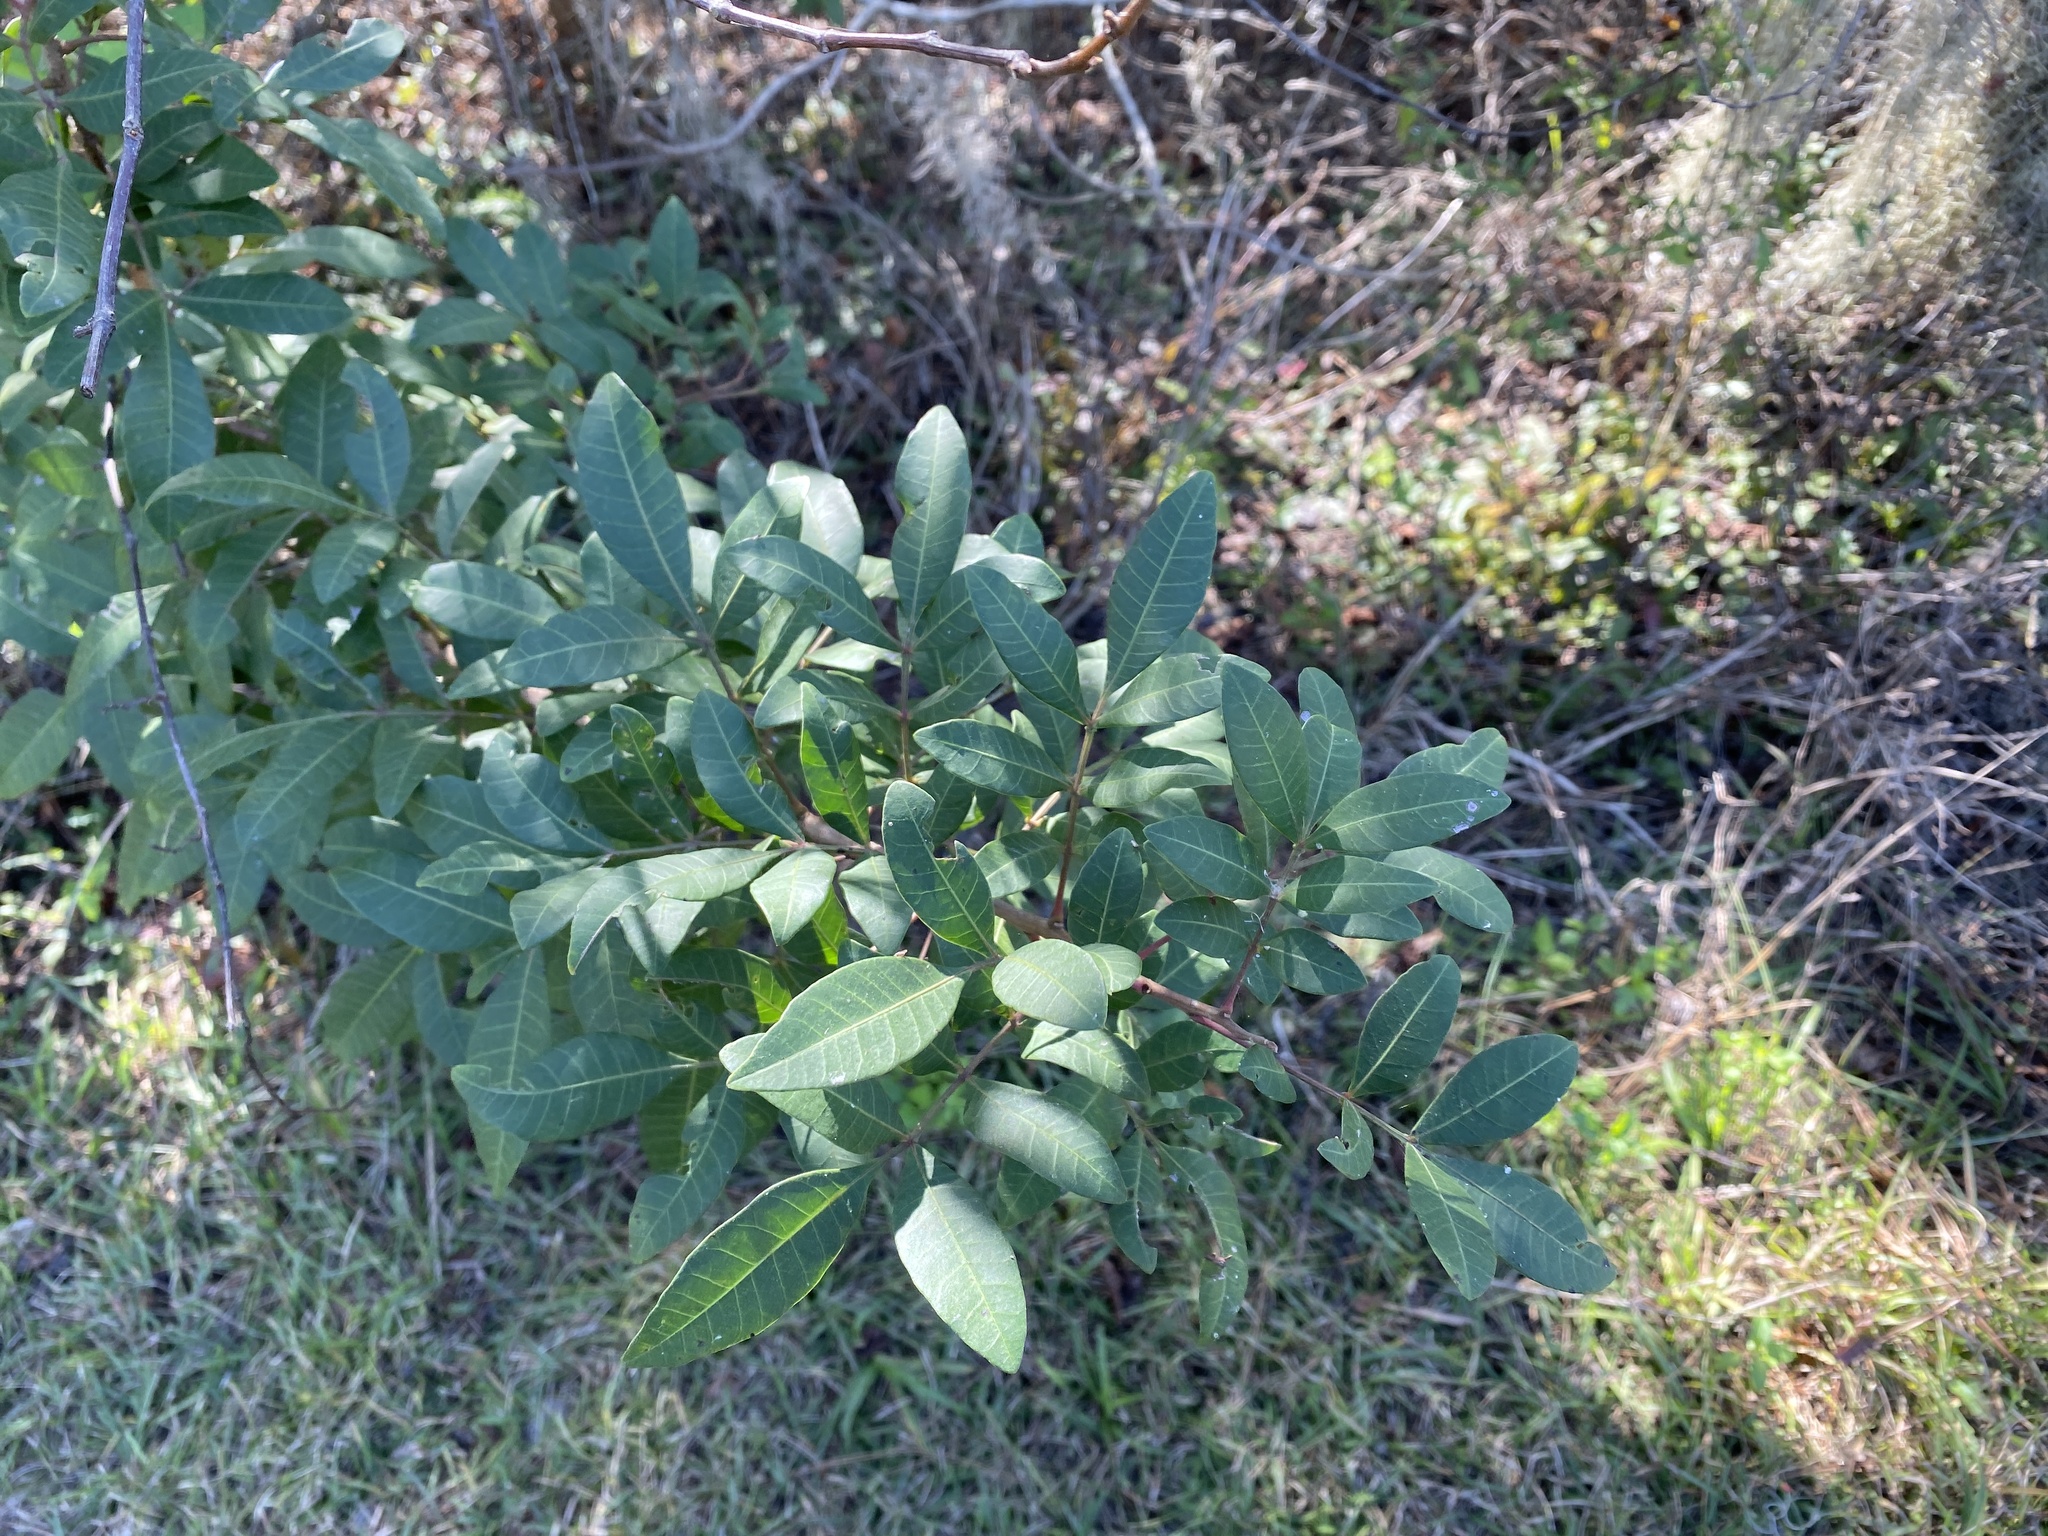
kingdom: Plantae
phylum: Tracheophyta
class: Magnoliopsida
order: Sapindales
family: Anacardiaceae
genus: Schinus
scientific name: Schinus terebinthifolia
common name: Brazilian peppertree
